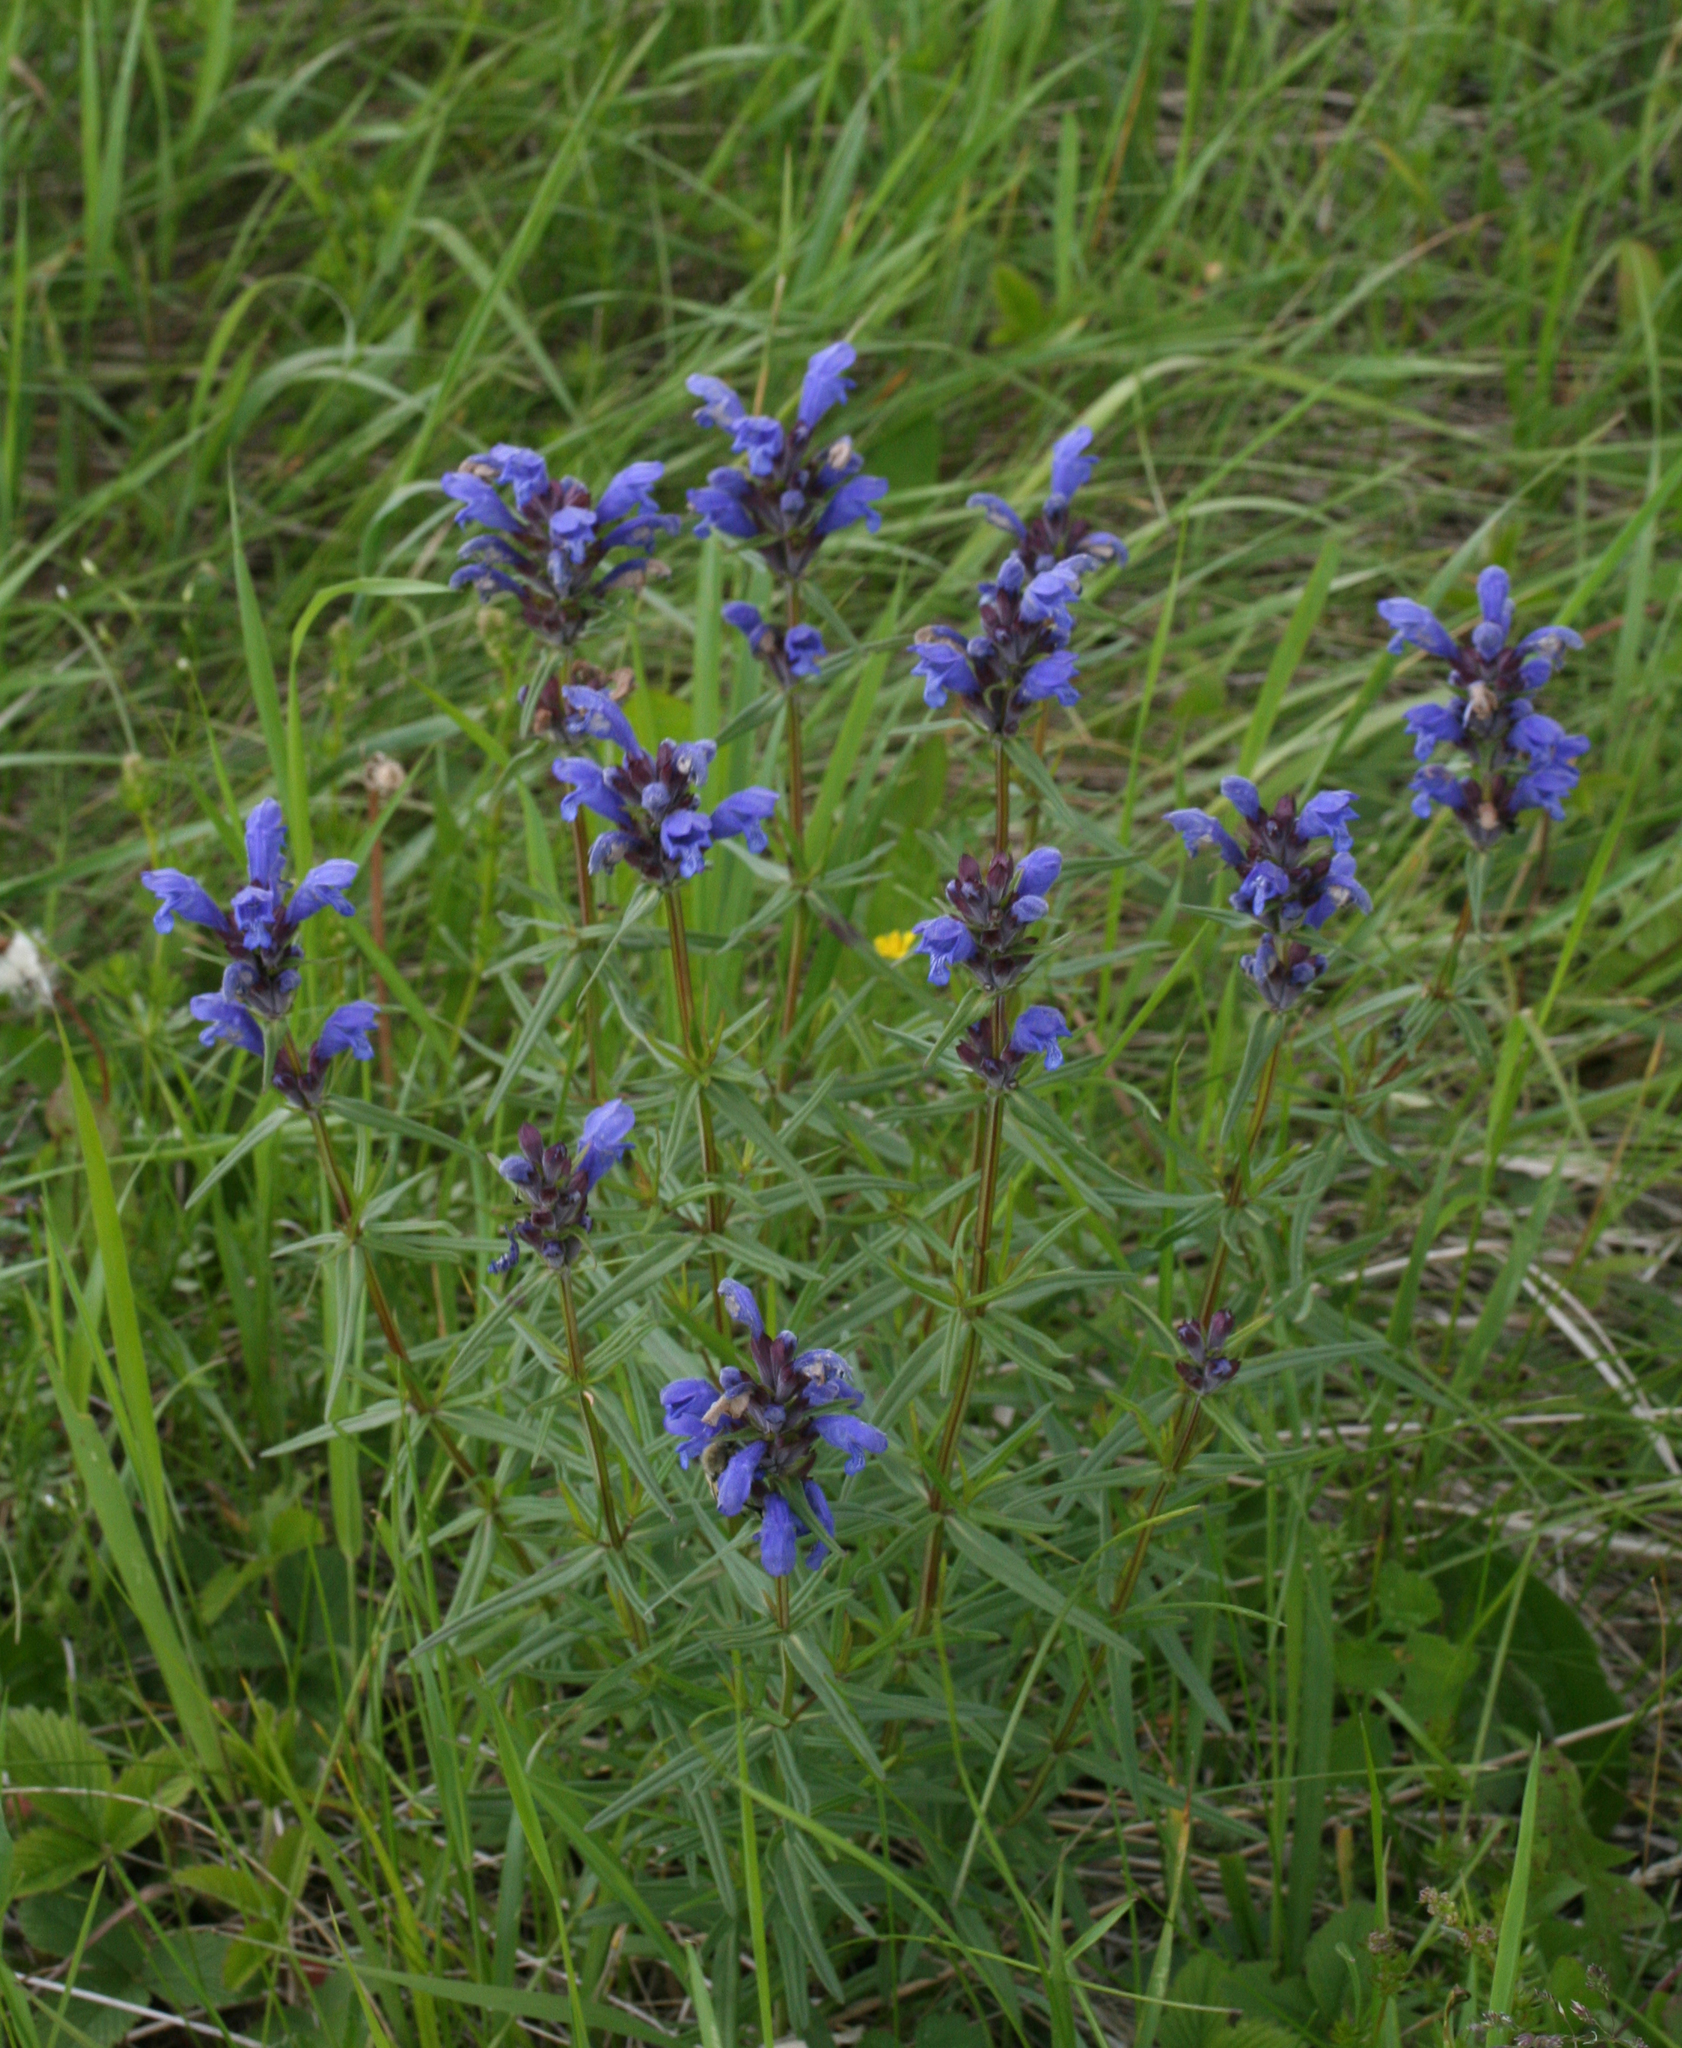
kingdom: Plantae
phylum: Tracheophyta
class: Magnoliopsida
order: Lamiales
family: Lamiaceae
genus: Dracocephalum
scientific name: Dracocephalum ruyschiana
